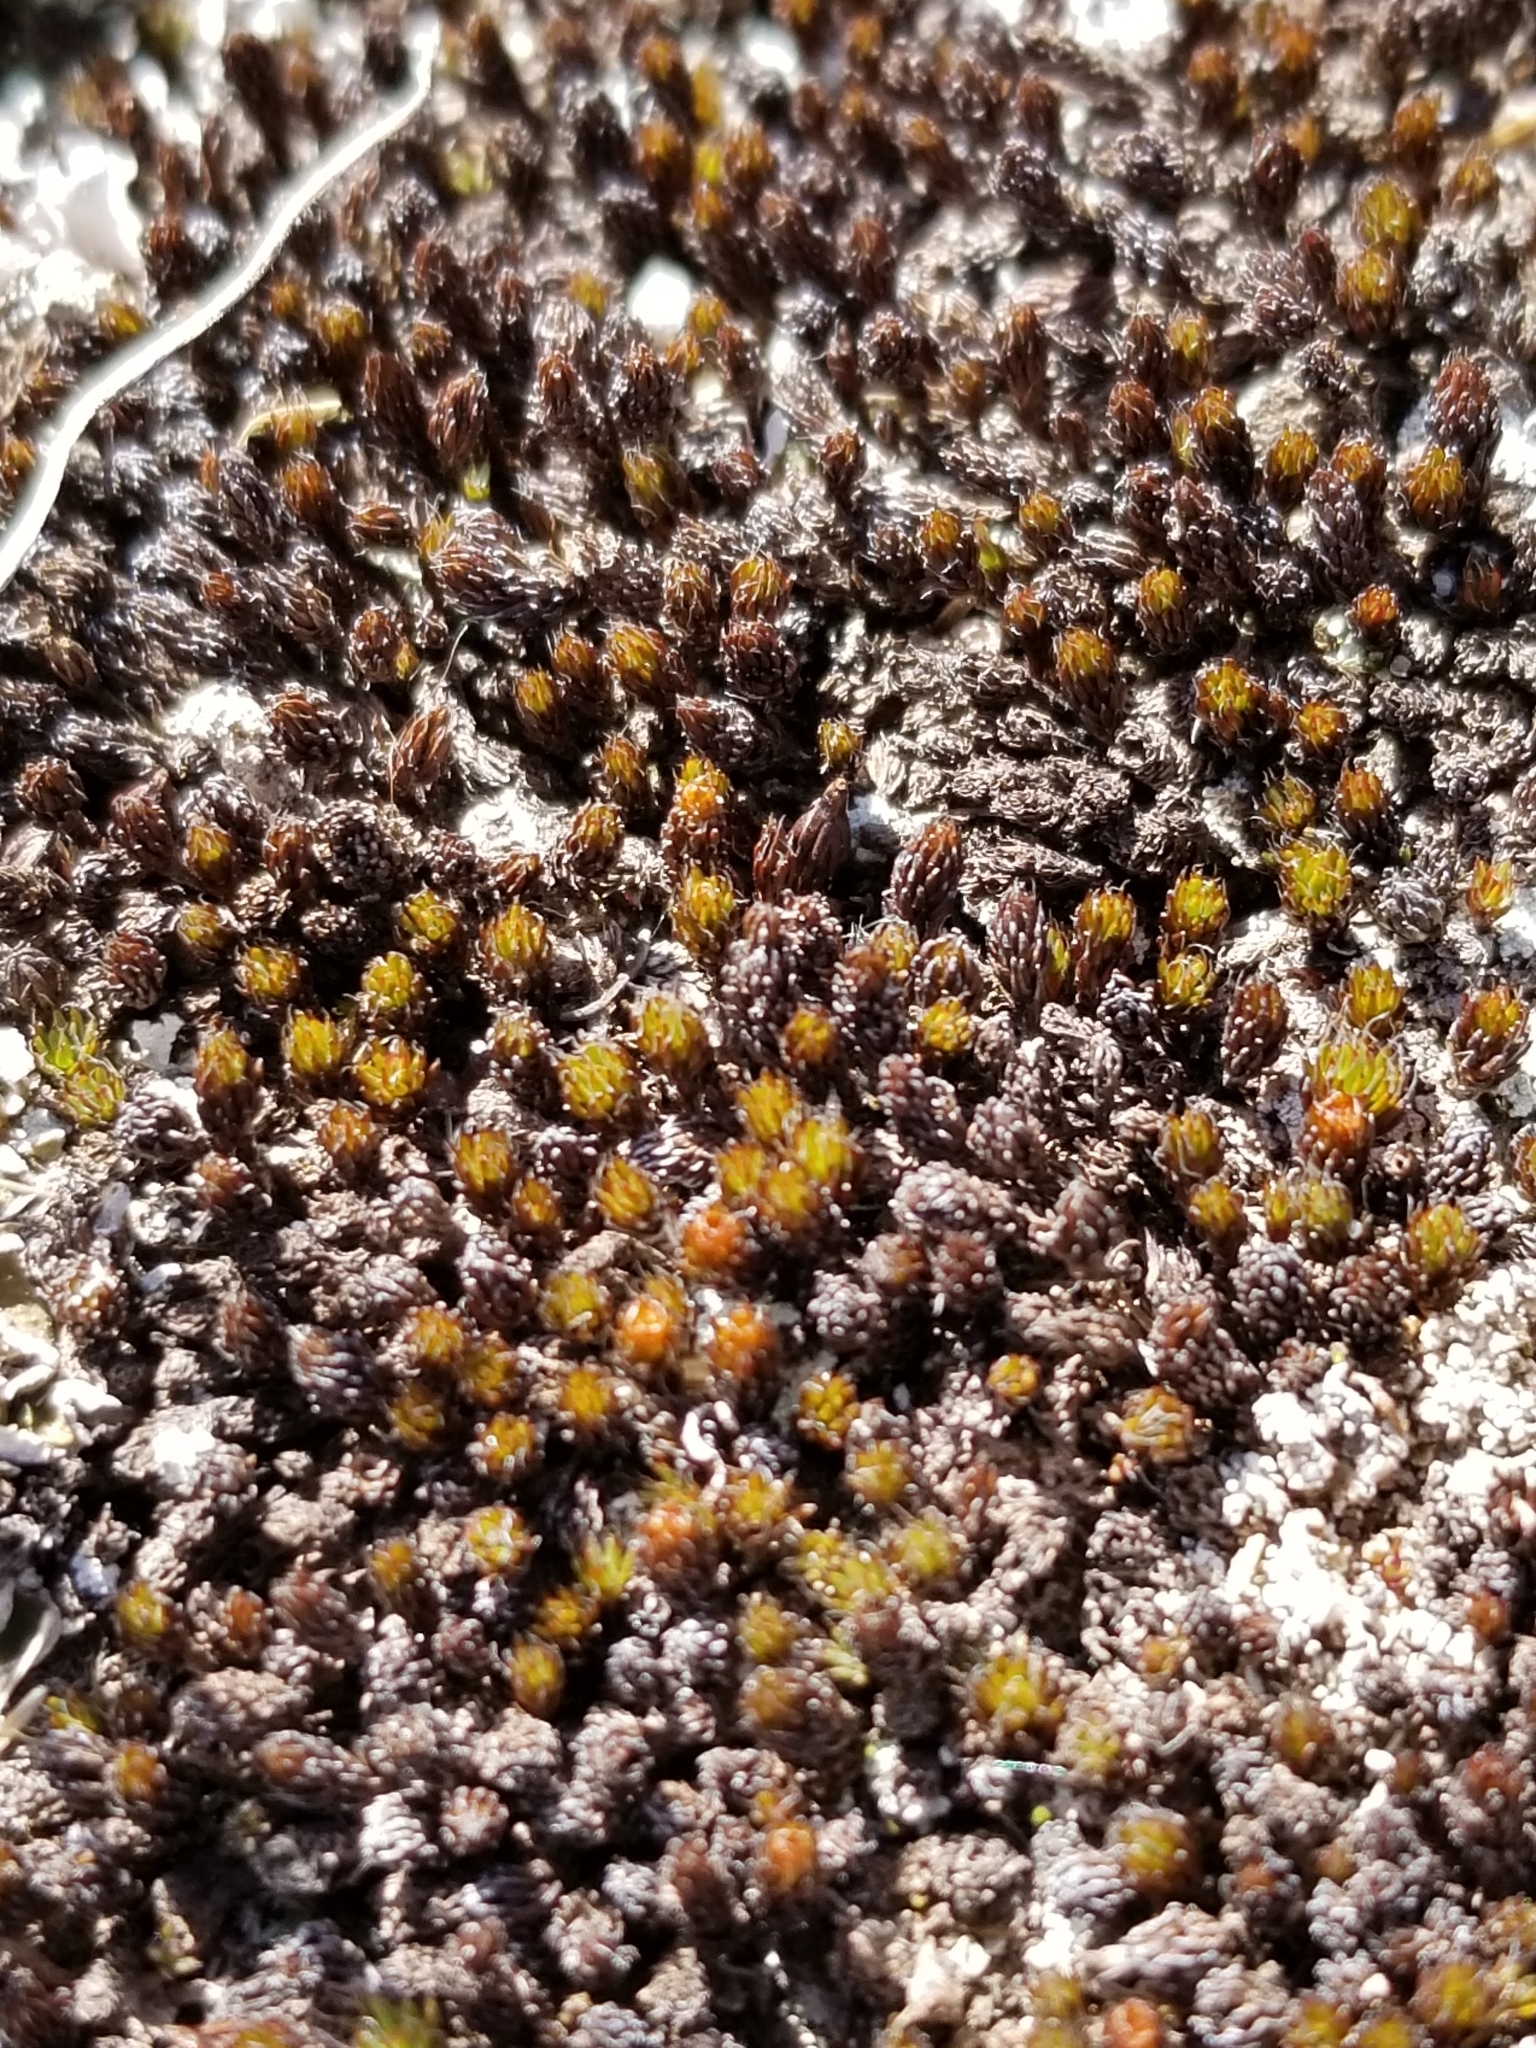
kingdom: Plantae
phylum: Bryophyta
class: Polytrichopsida
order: Polytrichales
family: Polytrichaceae
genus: Polytrichum
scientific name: Polytrichum piliferum
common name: Bristly haircap
